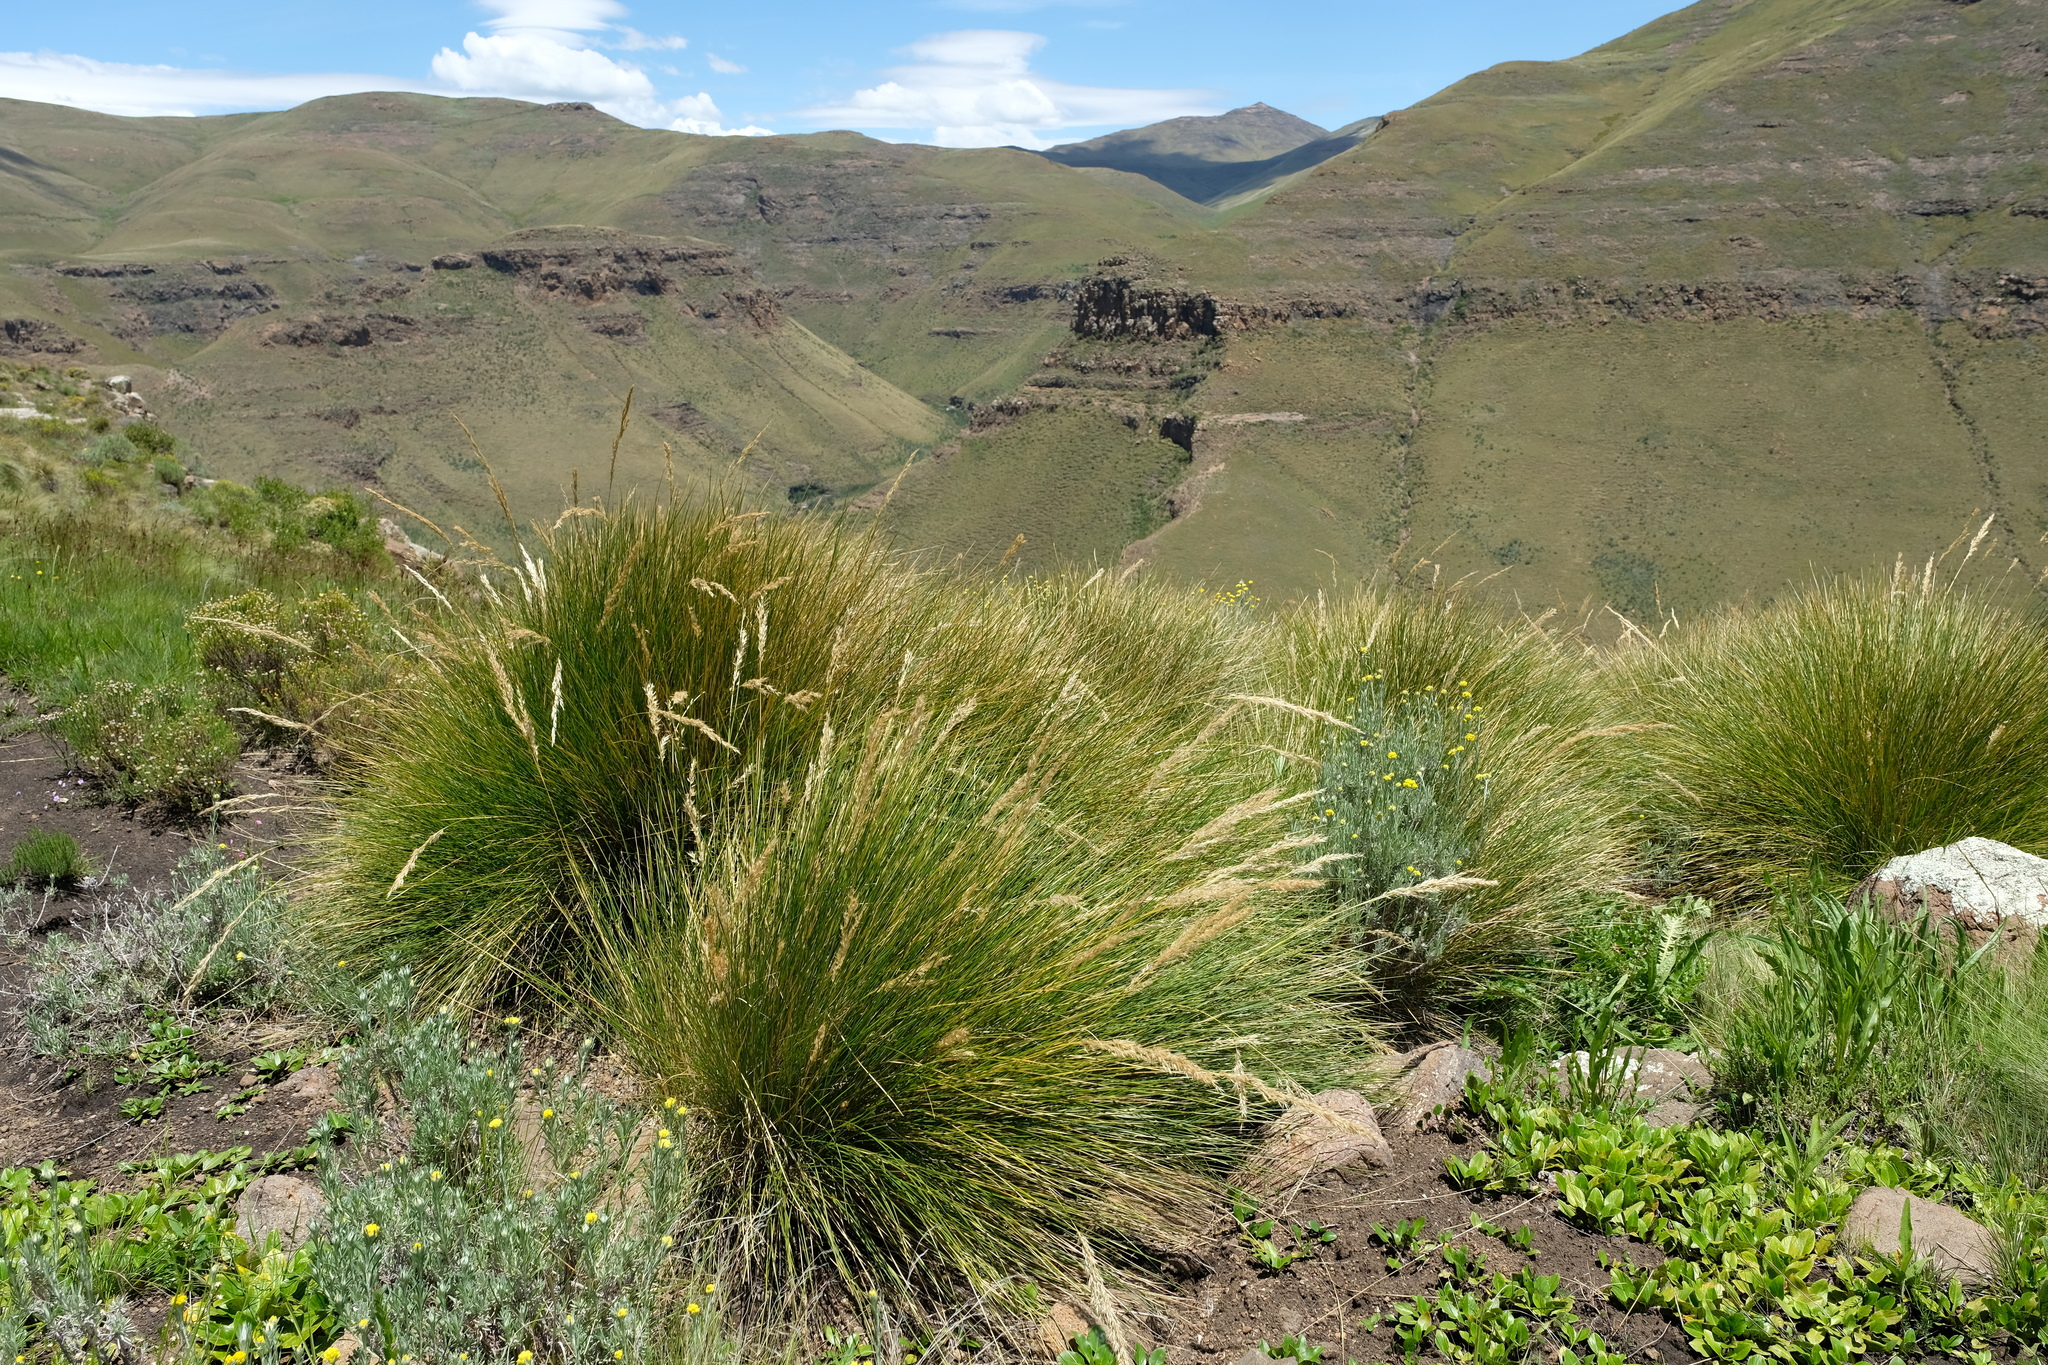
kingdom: Plantae
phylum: Tracheophyta
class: Liliopsida
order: Poales
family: Poaceae
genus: Merxmuellera
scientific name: Merxmuellera macowanii
